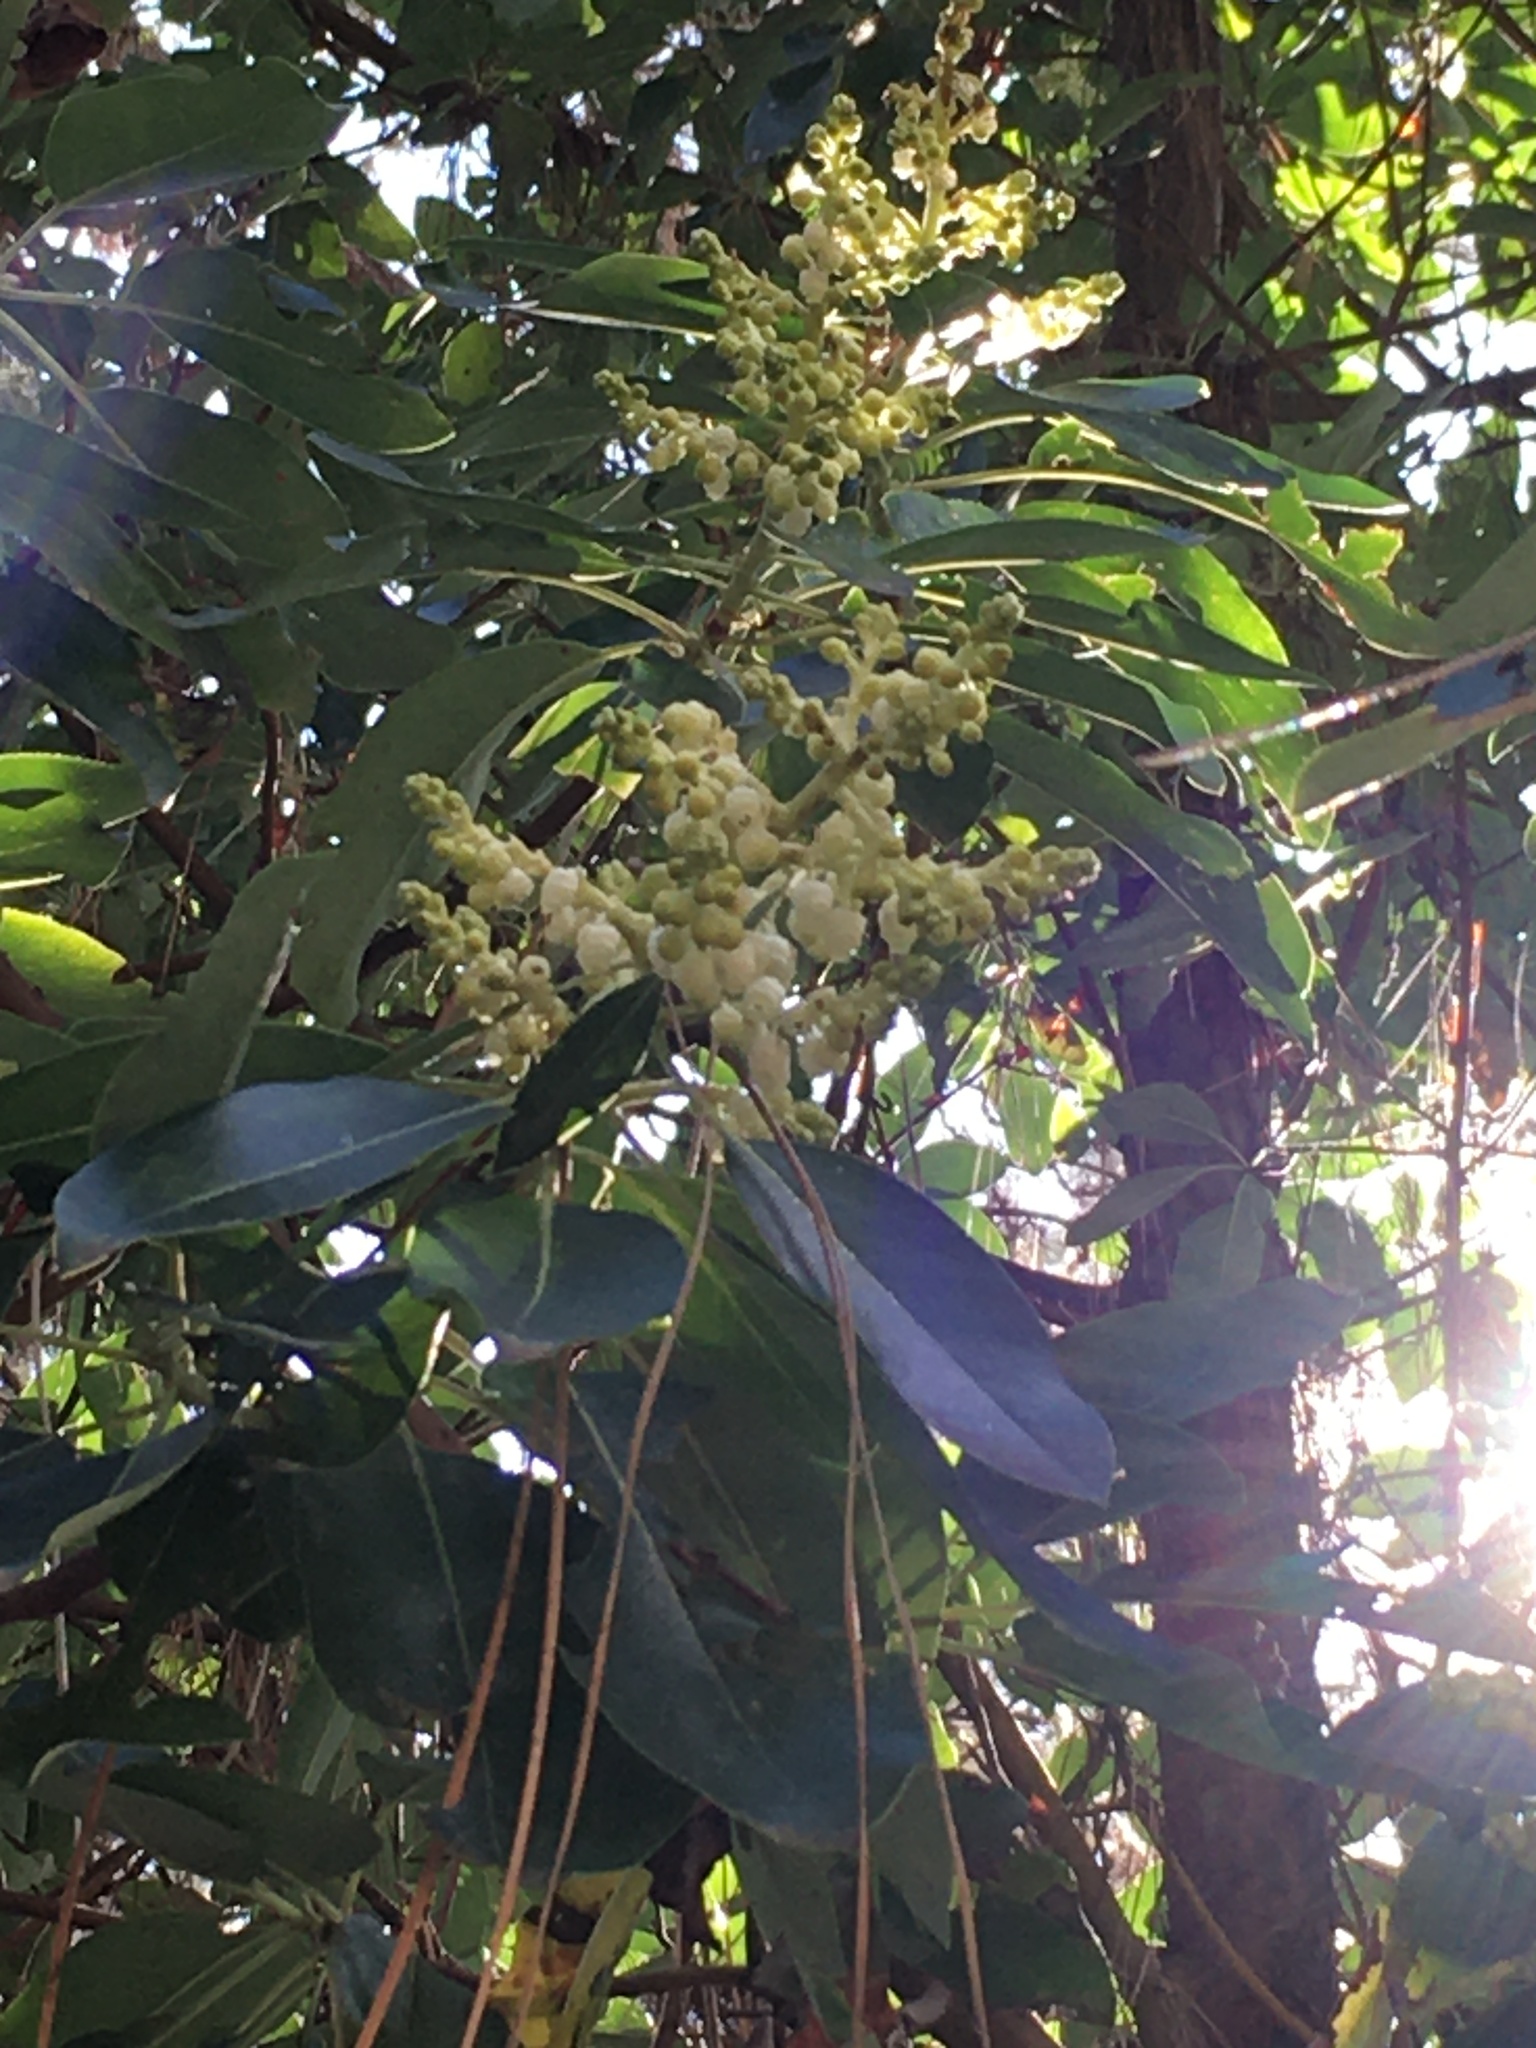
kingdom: Plantae
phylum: Tracheophyta
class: Magnoliopsida
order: Ericales
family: Ericaceae
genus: Arbutus
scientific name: Arbutus menziesii
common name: Pacific madrone
